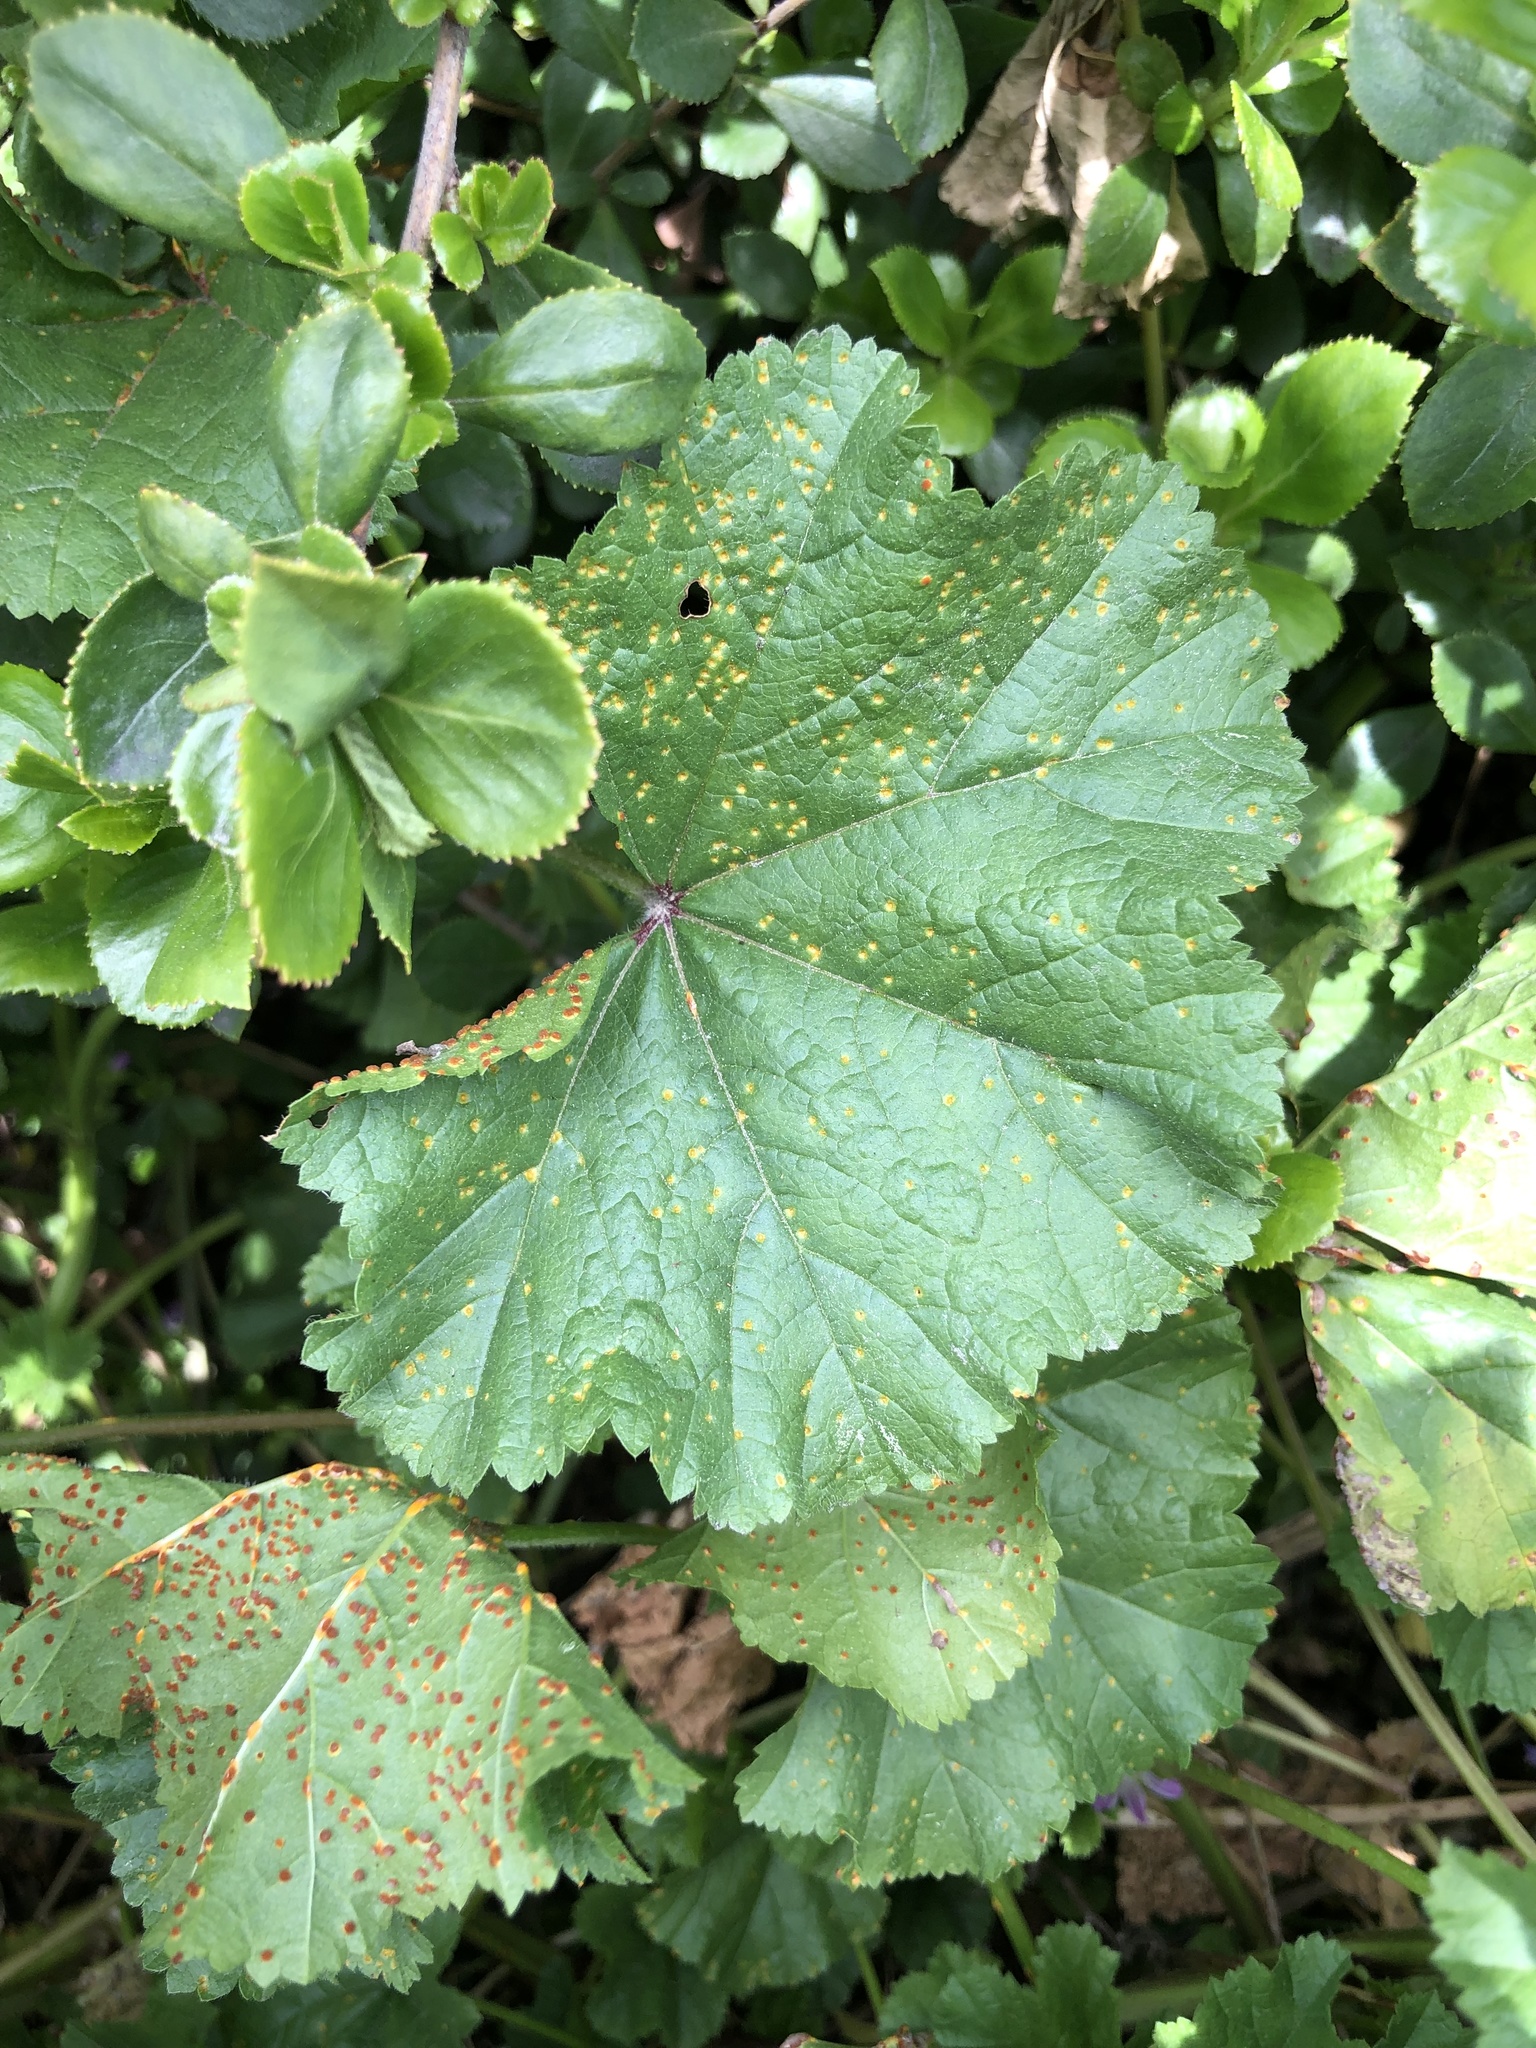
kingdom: Fungi
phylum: Basidiomycota
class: Pucciniomycetes
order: Pucciniales
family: Pucciniaceae
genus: Puccinia
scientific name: Puccinia malvacearum
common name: Hollyhock rust
